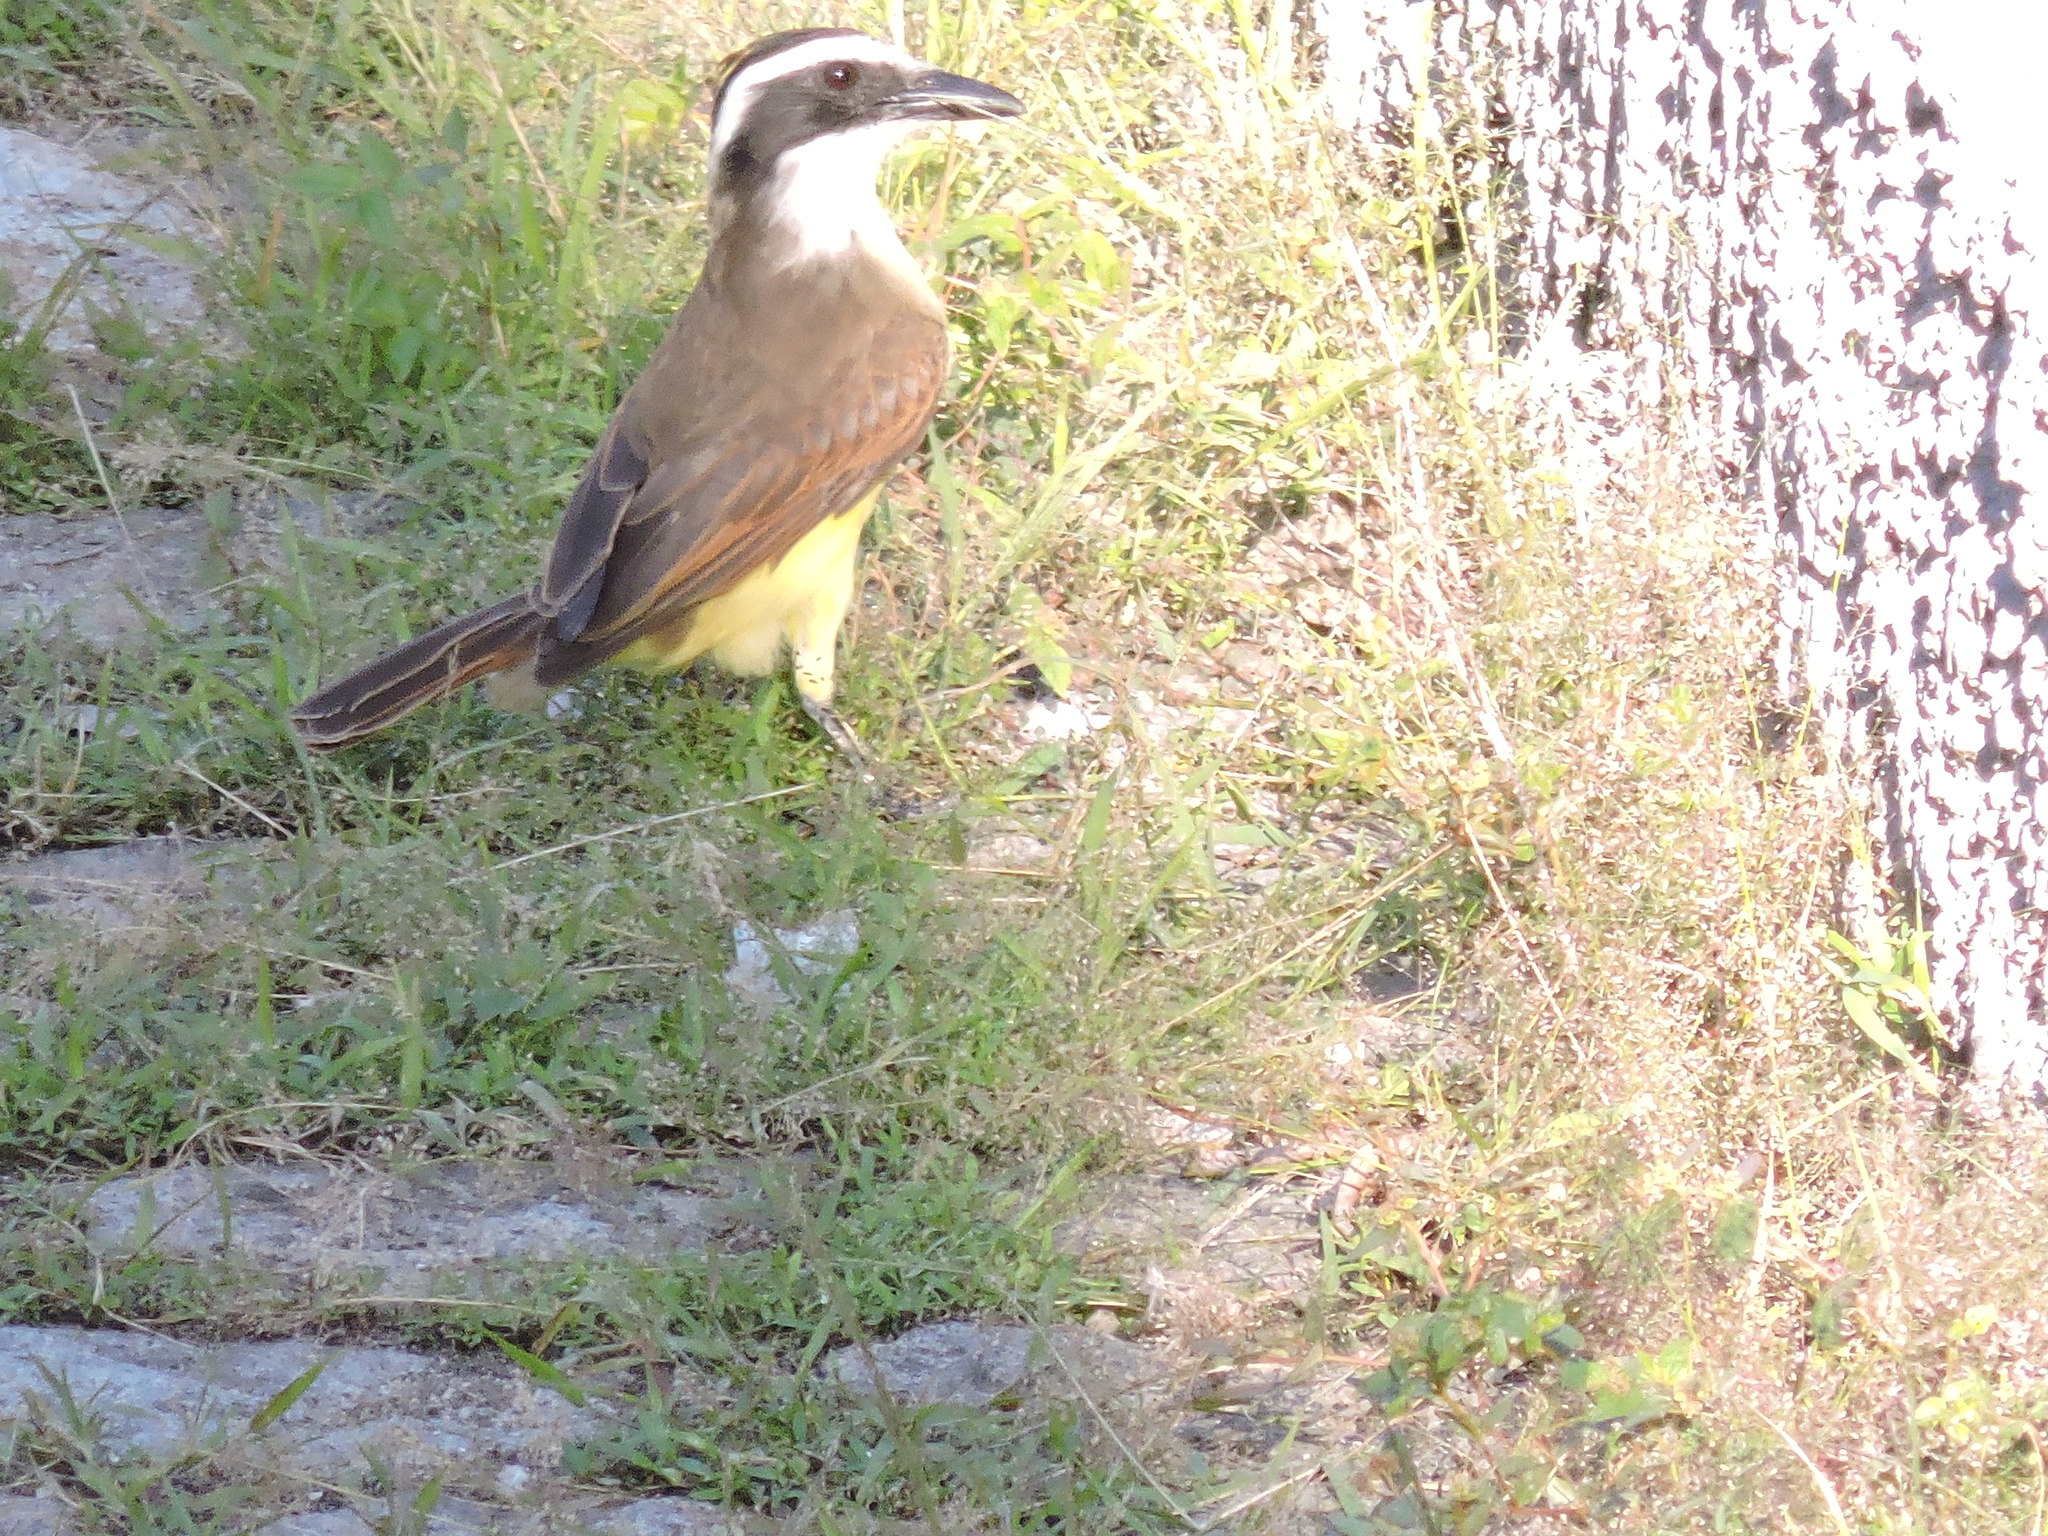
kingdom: Animalia
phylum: Chordata
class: Aves
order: Passeriformes
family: Tyrannidae
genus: Pitangus
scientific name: Pitangus sulphuratus
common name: Great kiskadee
